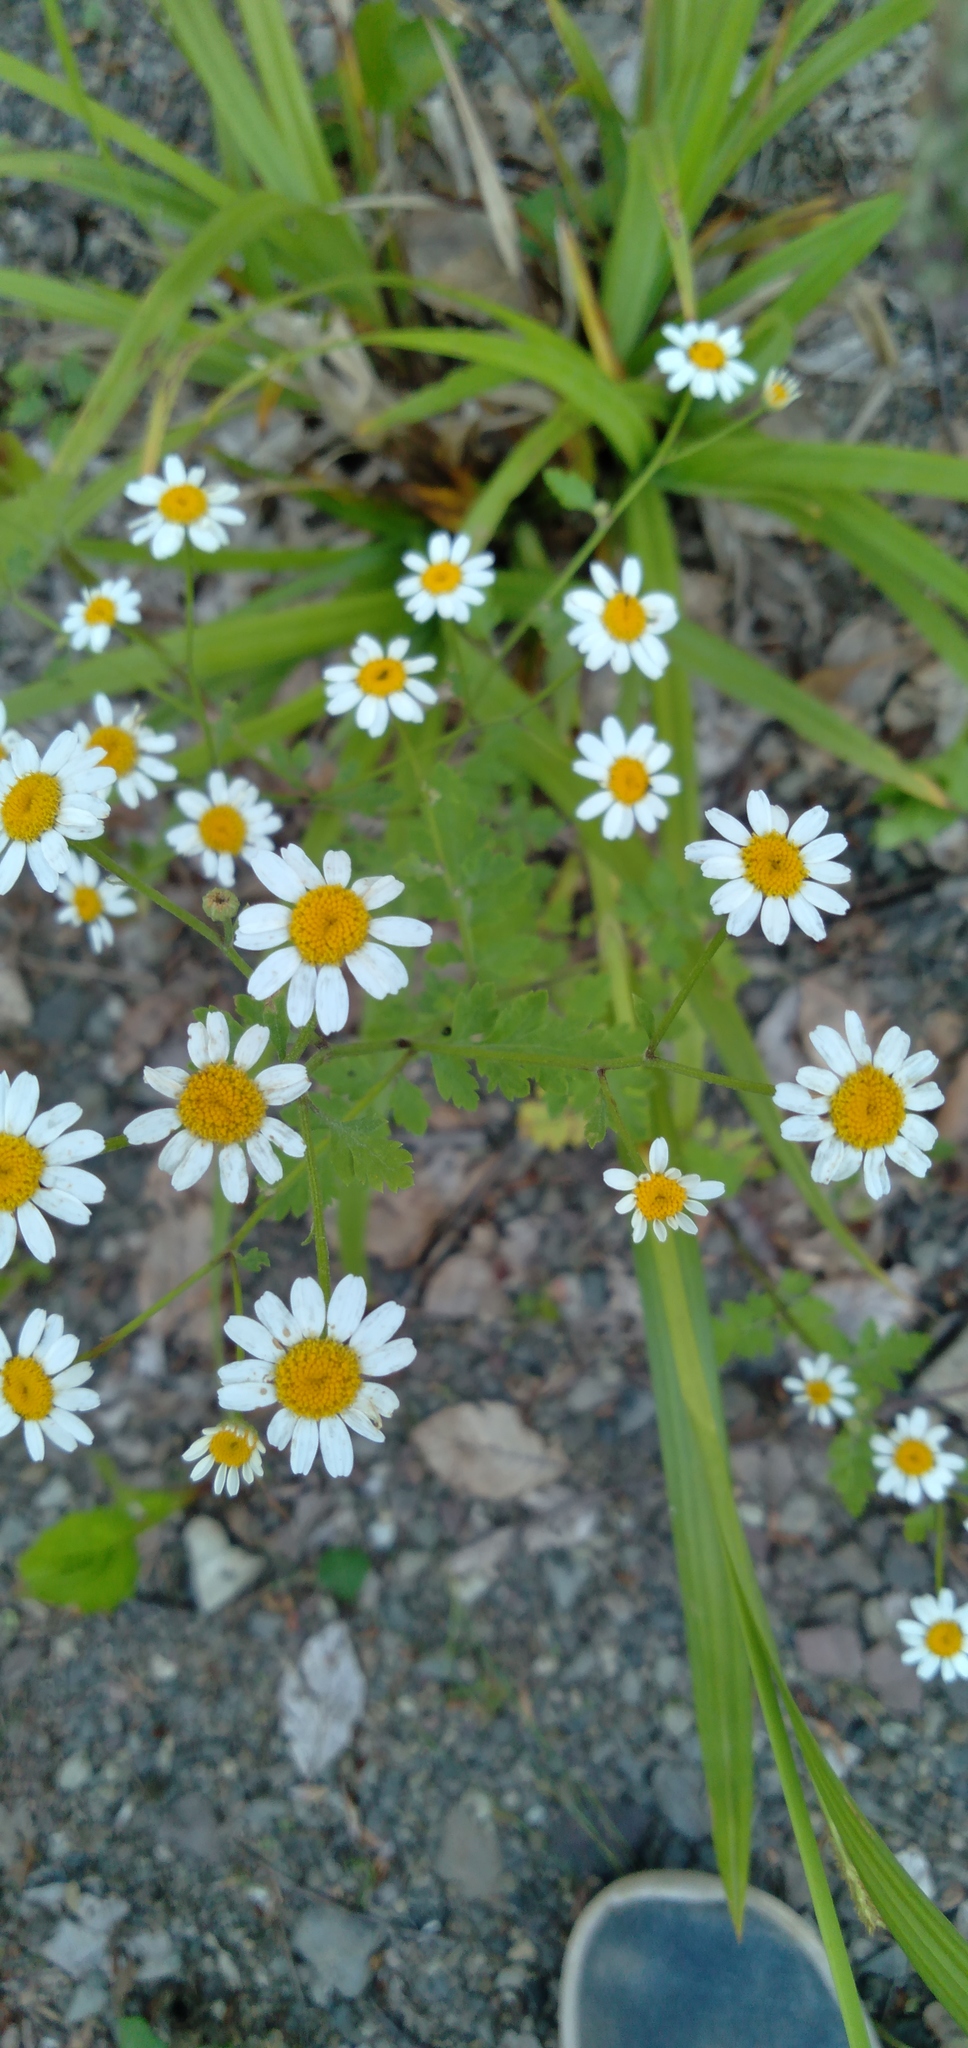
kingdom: Plantae
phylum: Tracheophyta
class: Magnoliopsida
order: Asterales
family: Asteraceae
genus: Tanacetum
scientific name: Tanacetum partheniifolium
